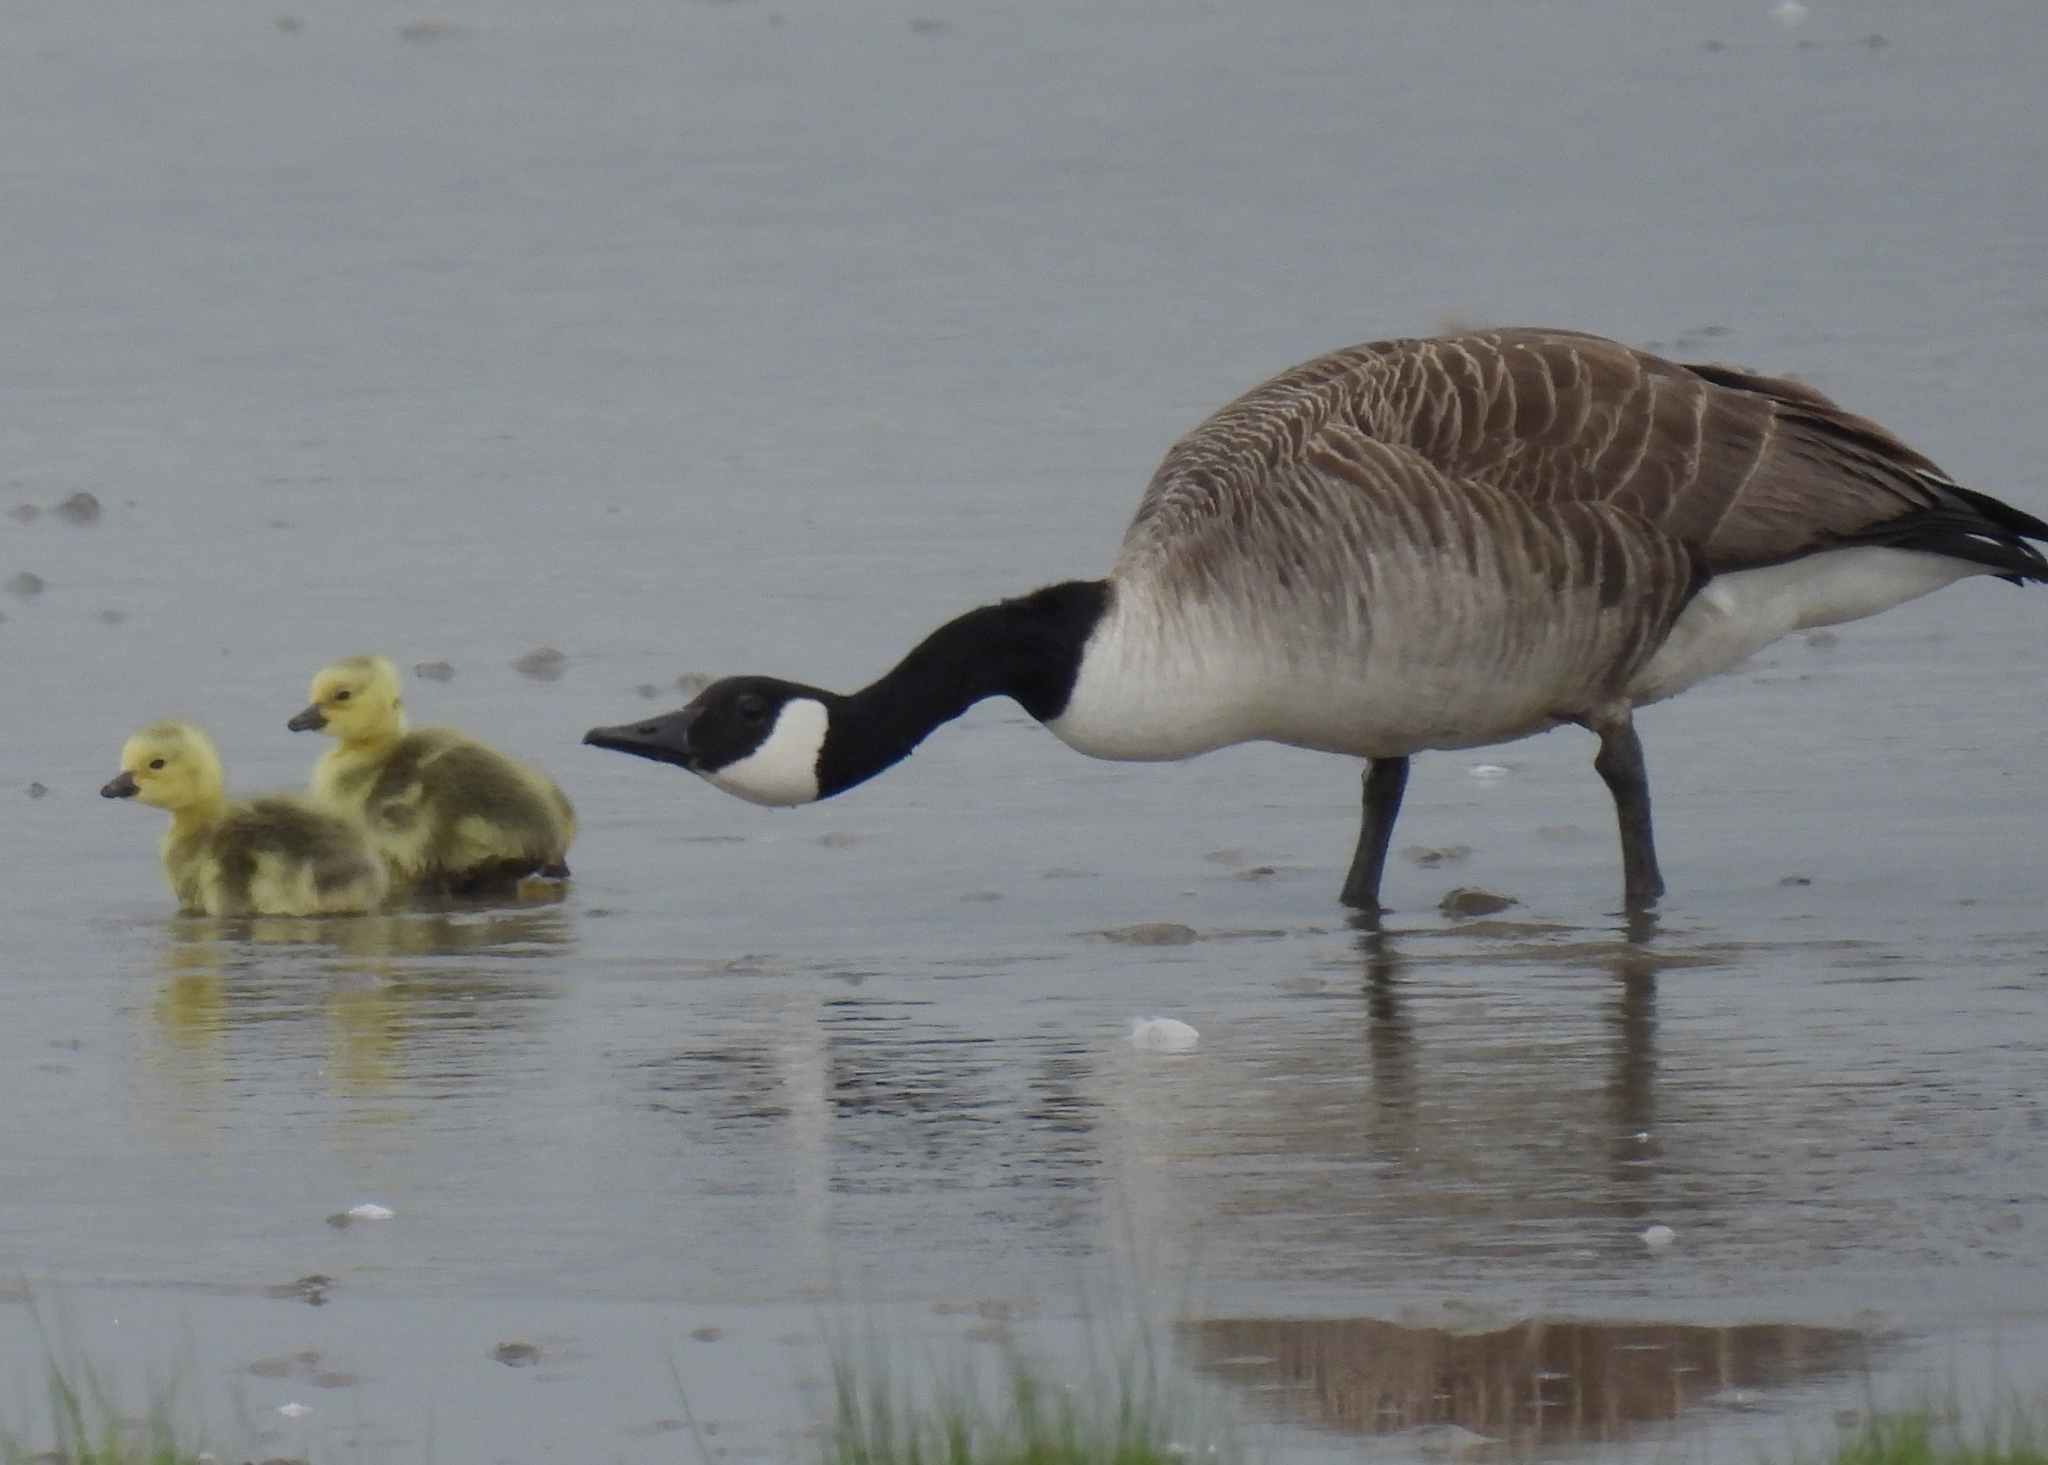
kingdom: Animalia
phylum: Chordata
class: Aves
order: Anseriformes
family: Anatidae
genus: Branta
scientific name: Branta canadensis
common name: Canada goose
